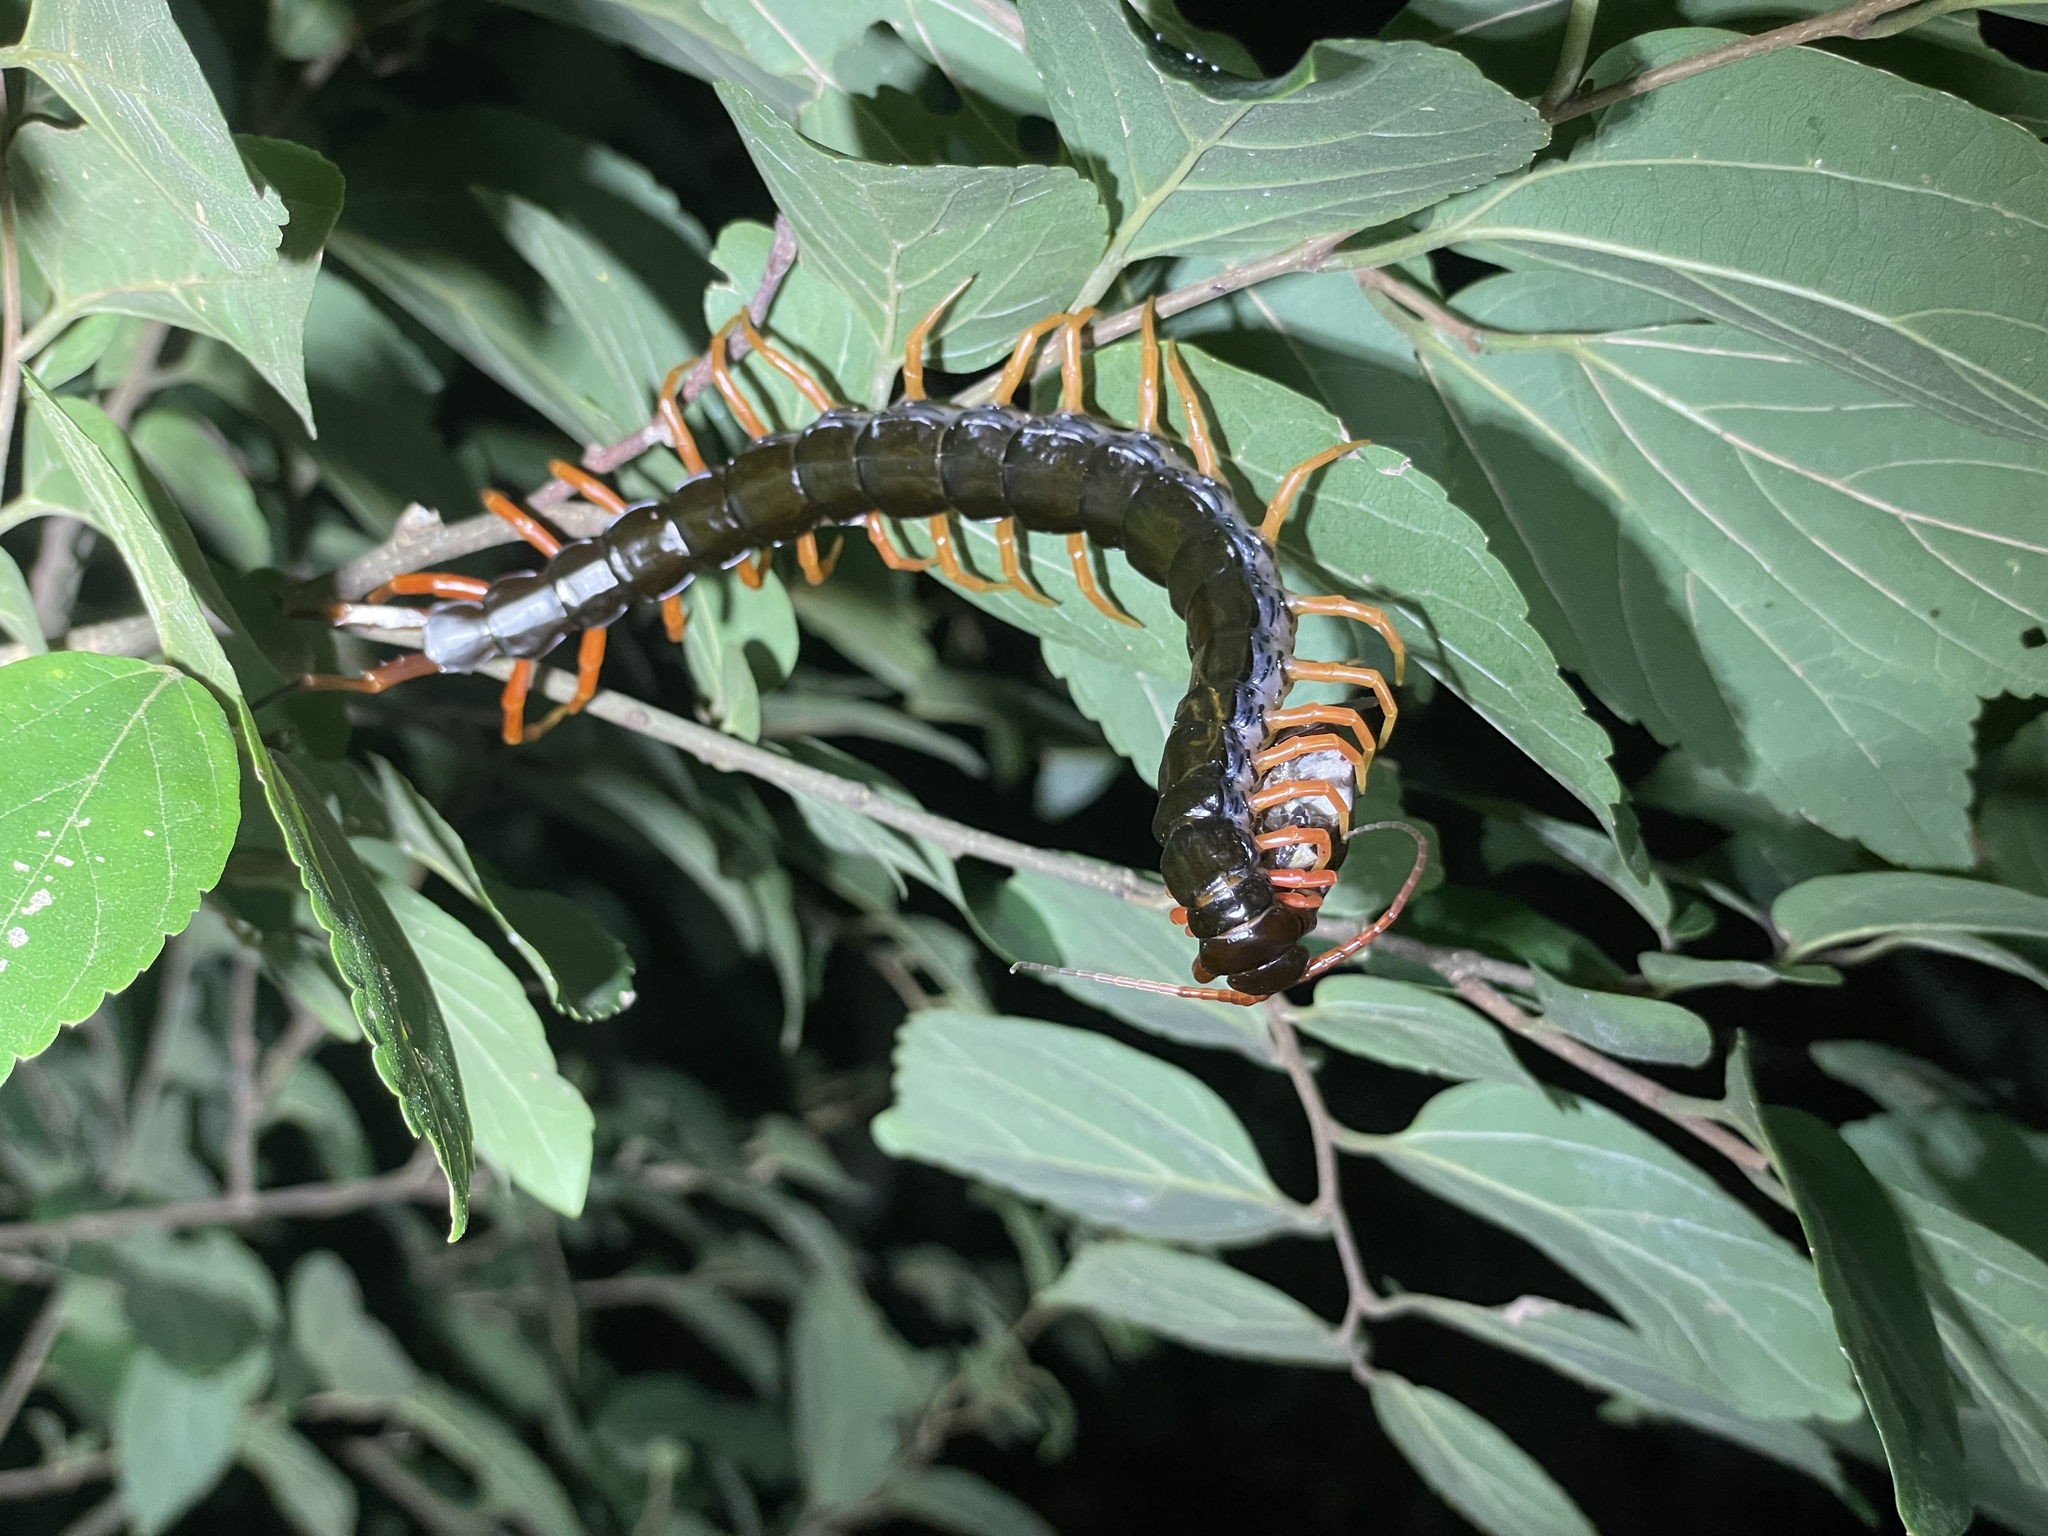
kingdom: Animalia
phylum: Arthropoda
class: Chilopoda
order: Scolopendromorpha
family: Scolopendridae
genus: Scolopendra
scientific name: Scolopendra hainana
